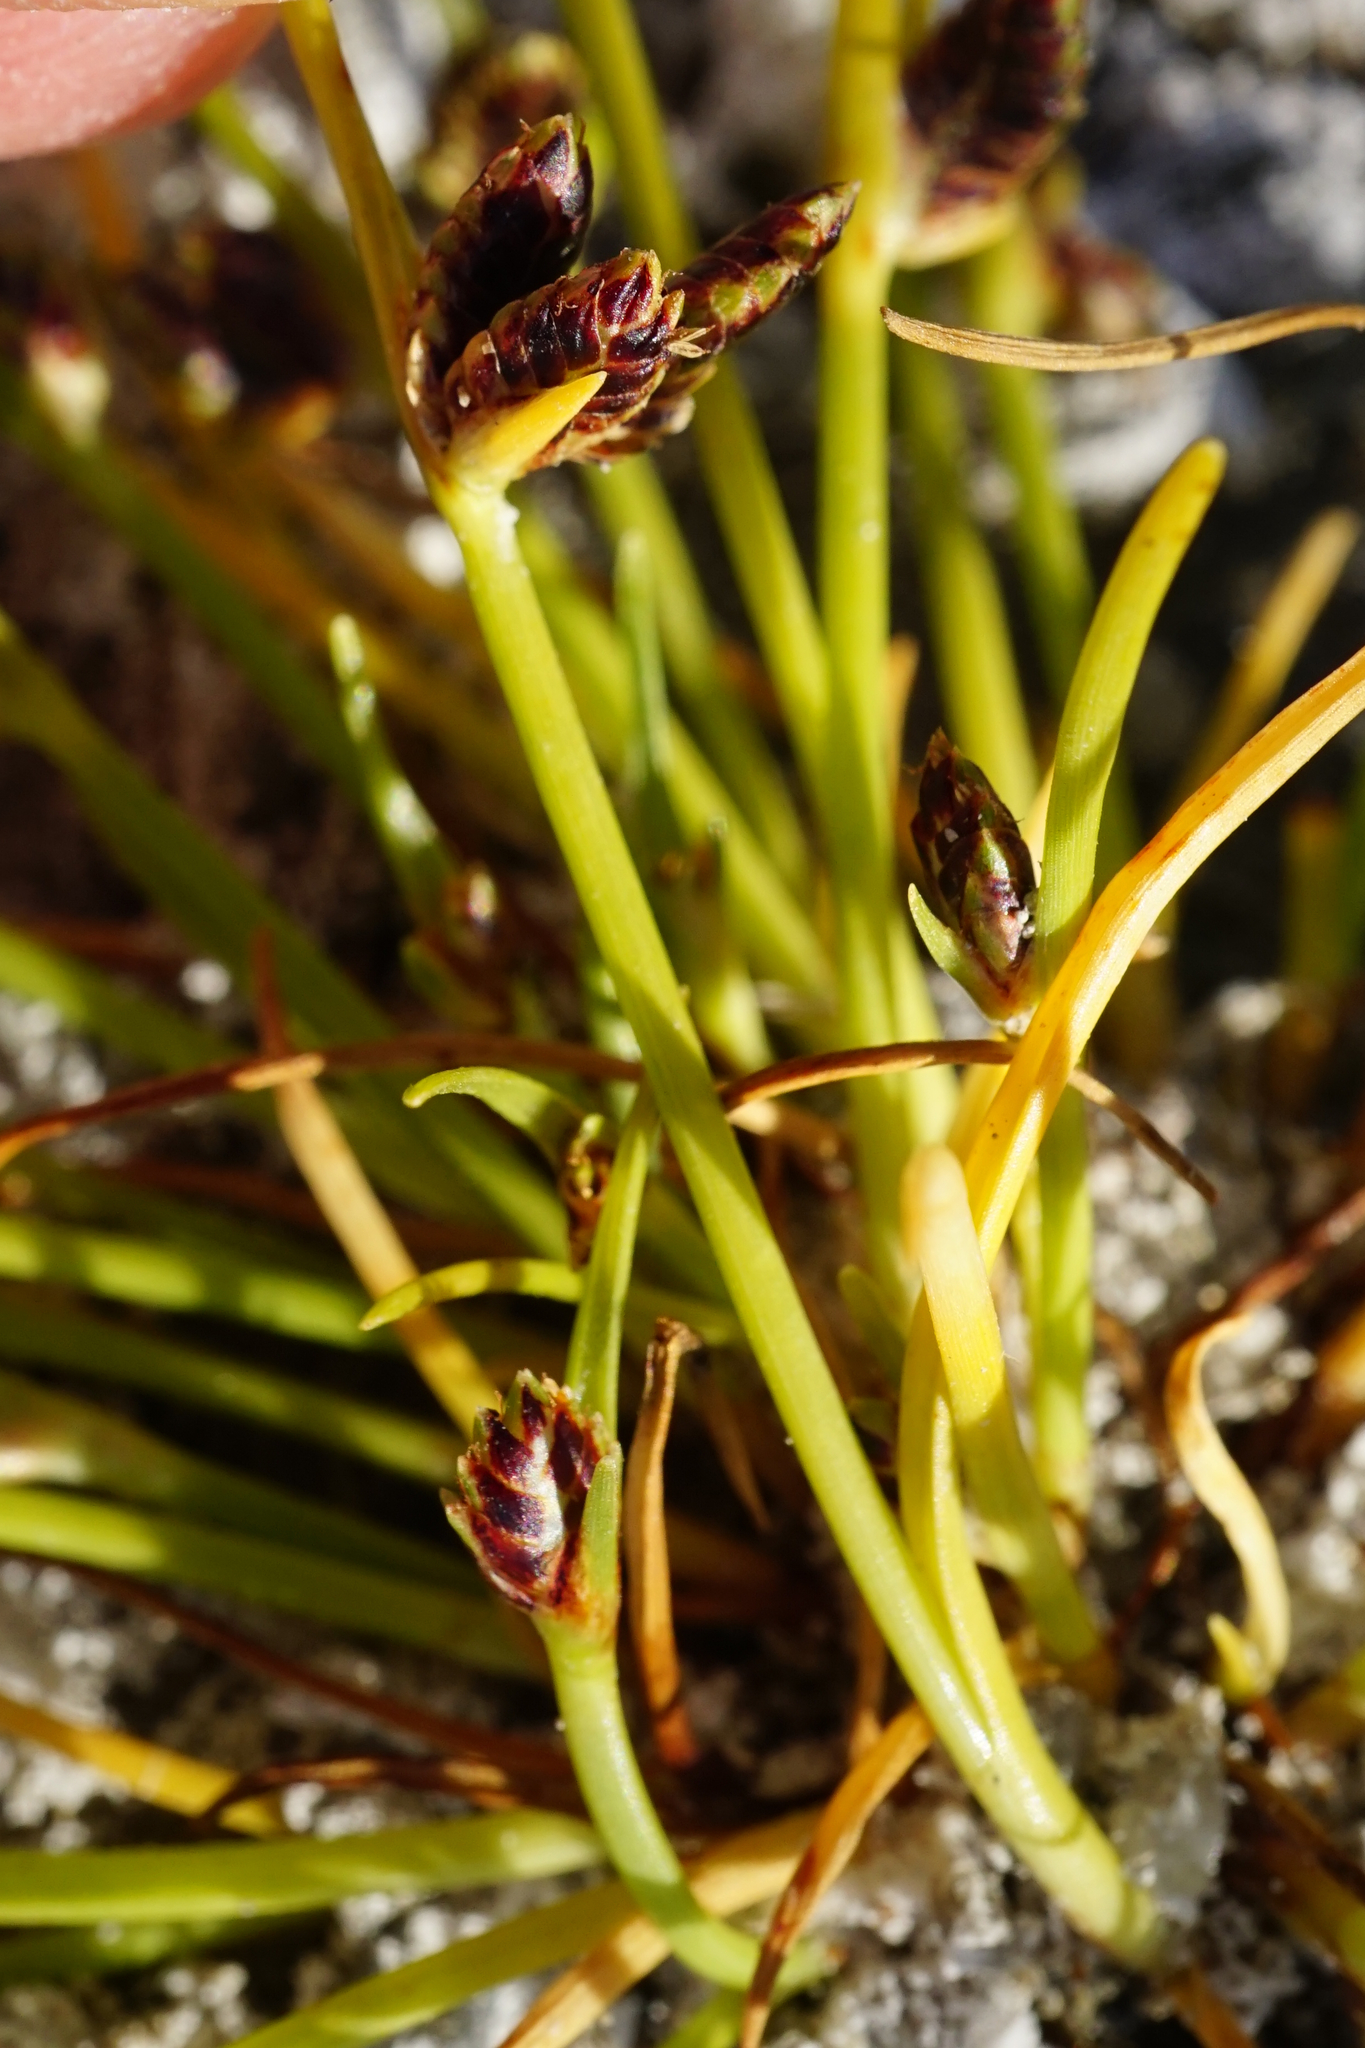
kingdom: Plantae
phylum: Tracheophyta
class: Liliopsida
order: Poales
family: Cyperaceae
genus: Cyperus
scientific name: Cyperus pannonicus
